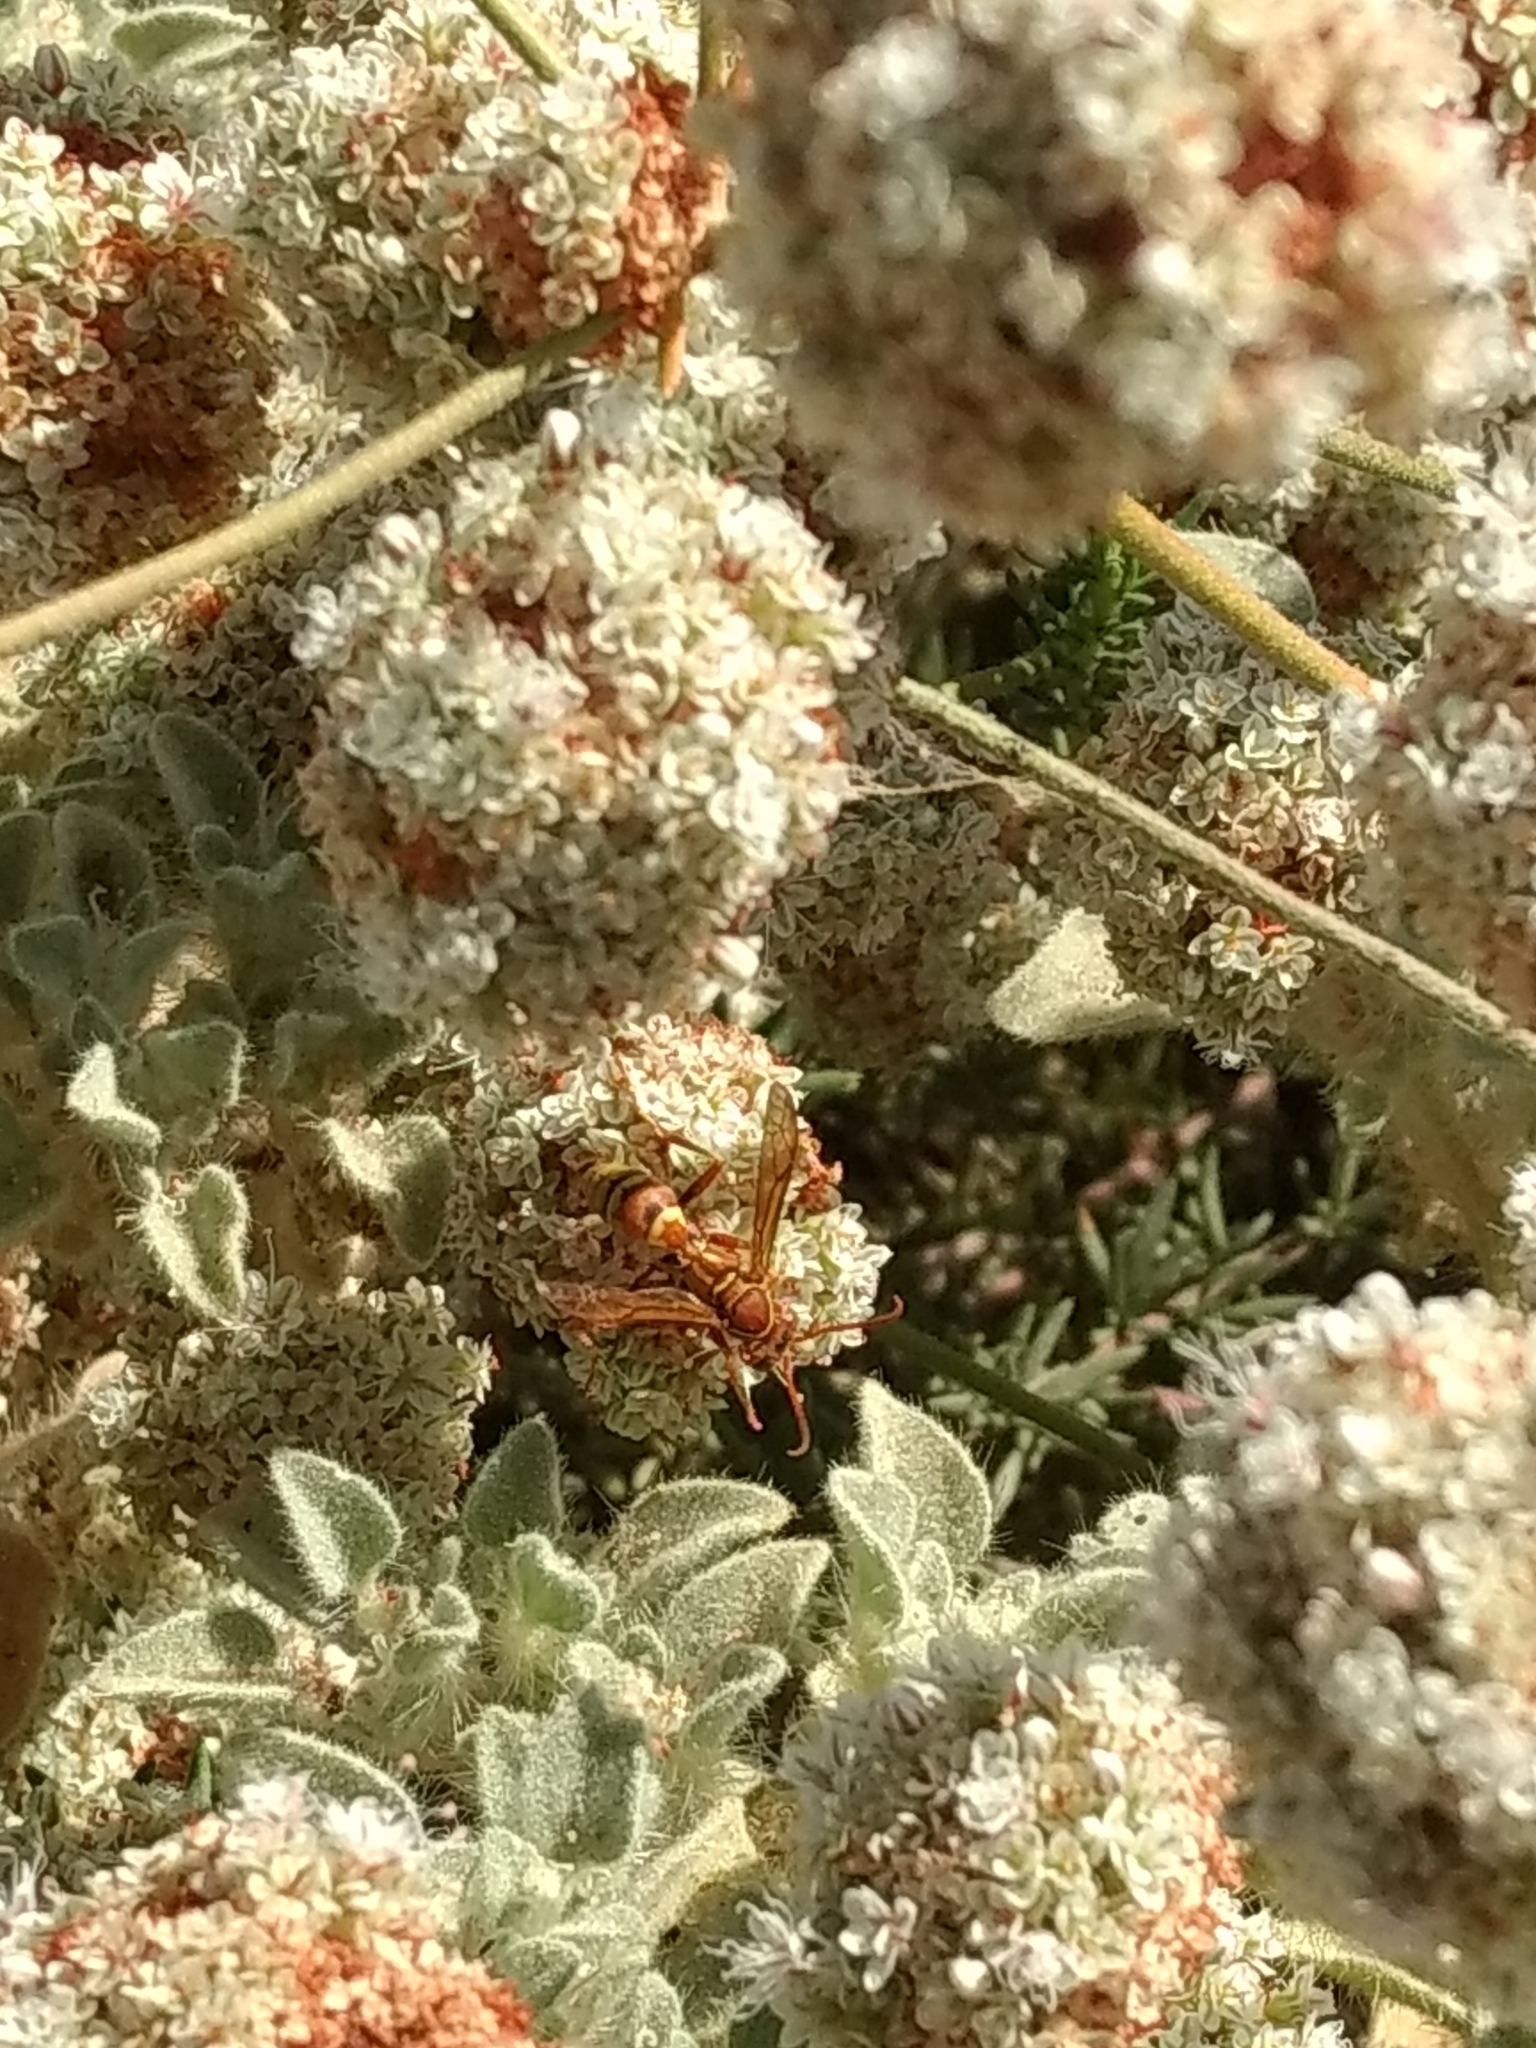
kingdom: Animalia
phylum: Arthropoda
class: Insecta
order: Hymenoptera
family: Eumenidae
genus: Polistes
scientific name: Polistes dorsalis
